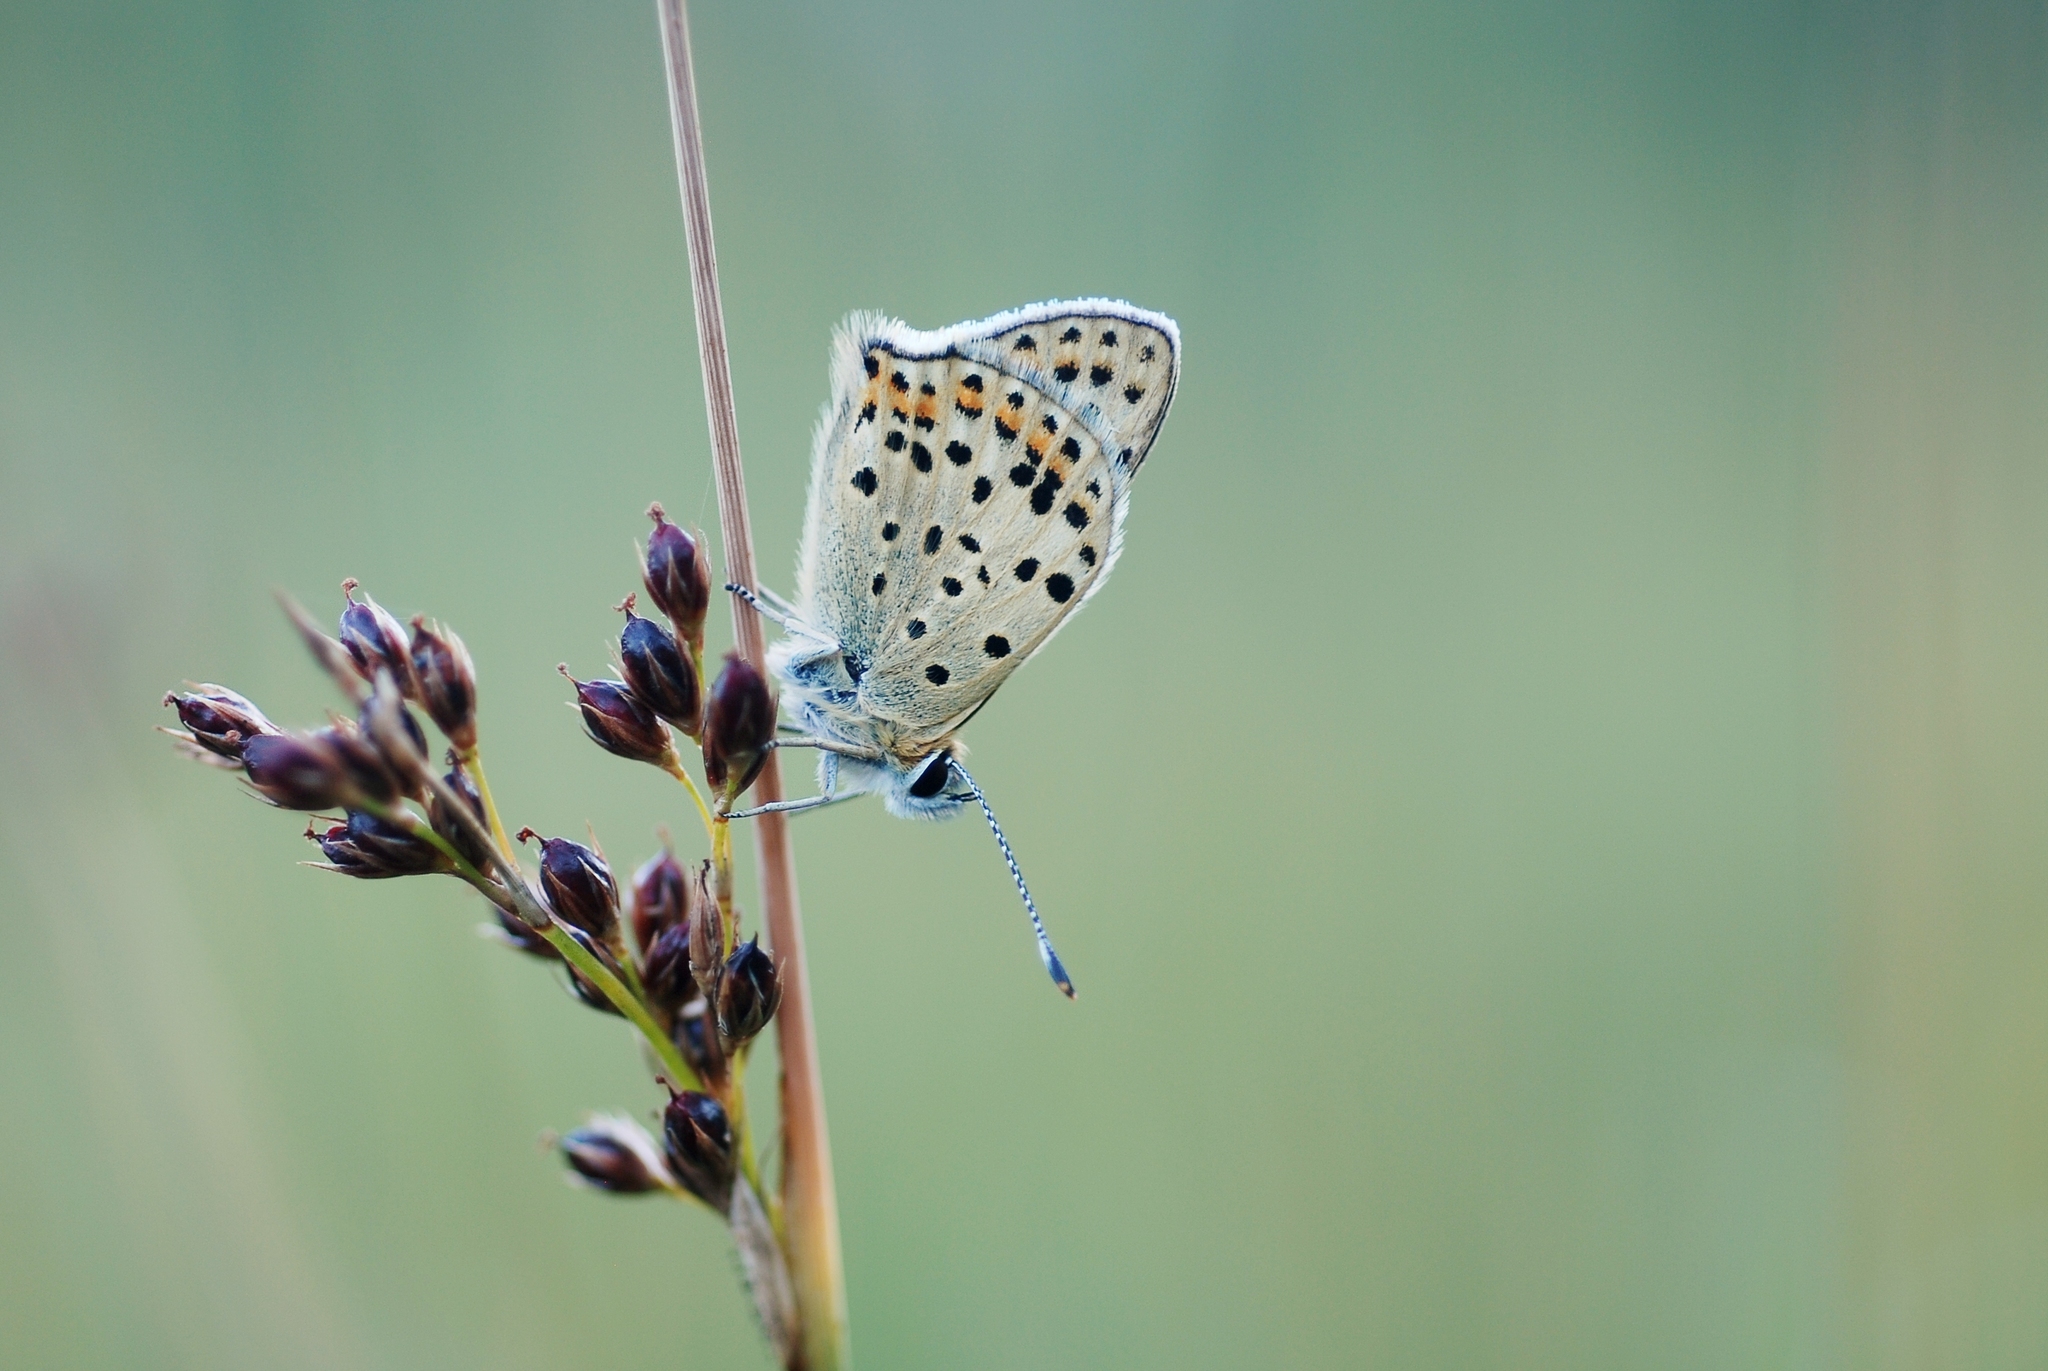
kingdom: Animalia
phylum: Arthropoda
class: Insecta
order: Lepidoptera
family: Lycaenidae
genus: Loweia
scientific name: Loweia tityrus
